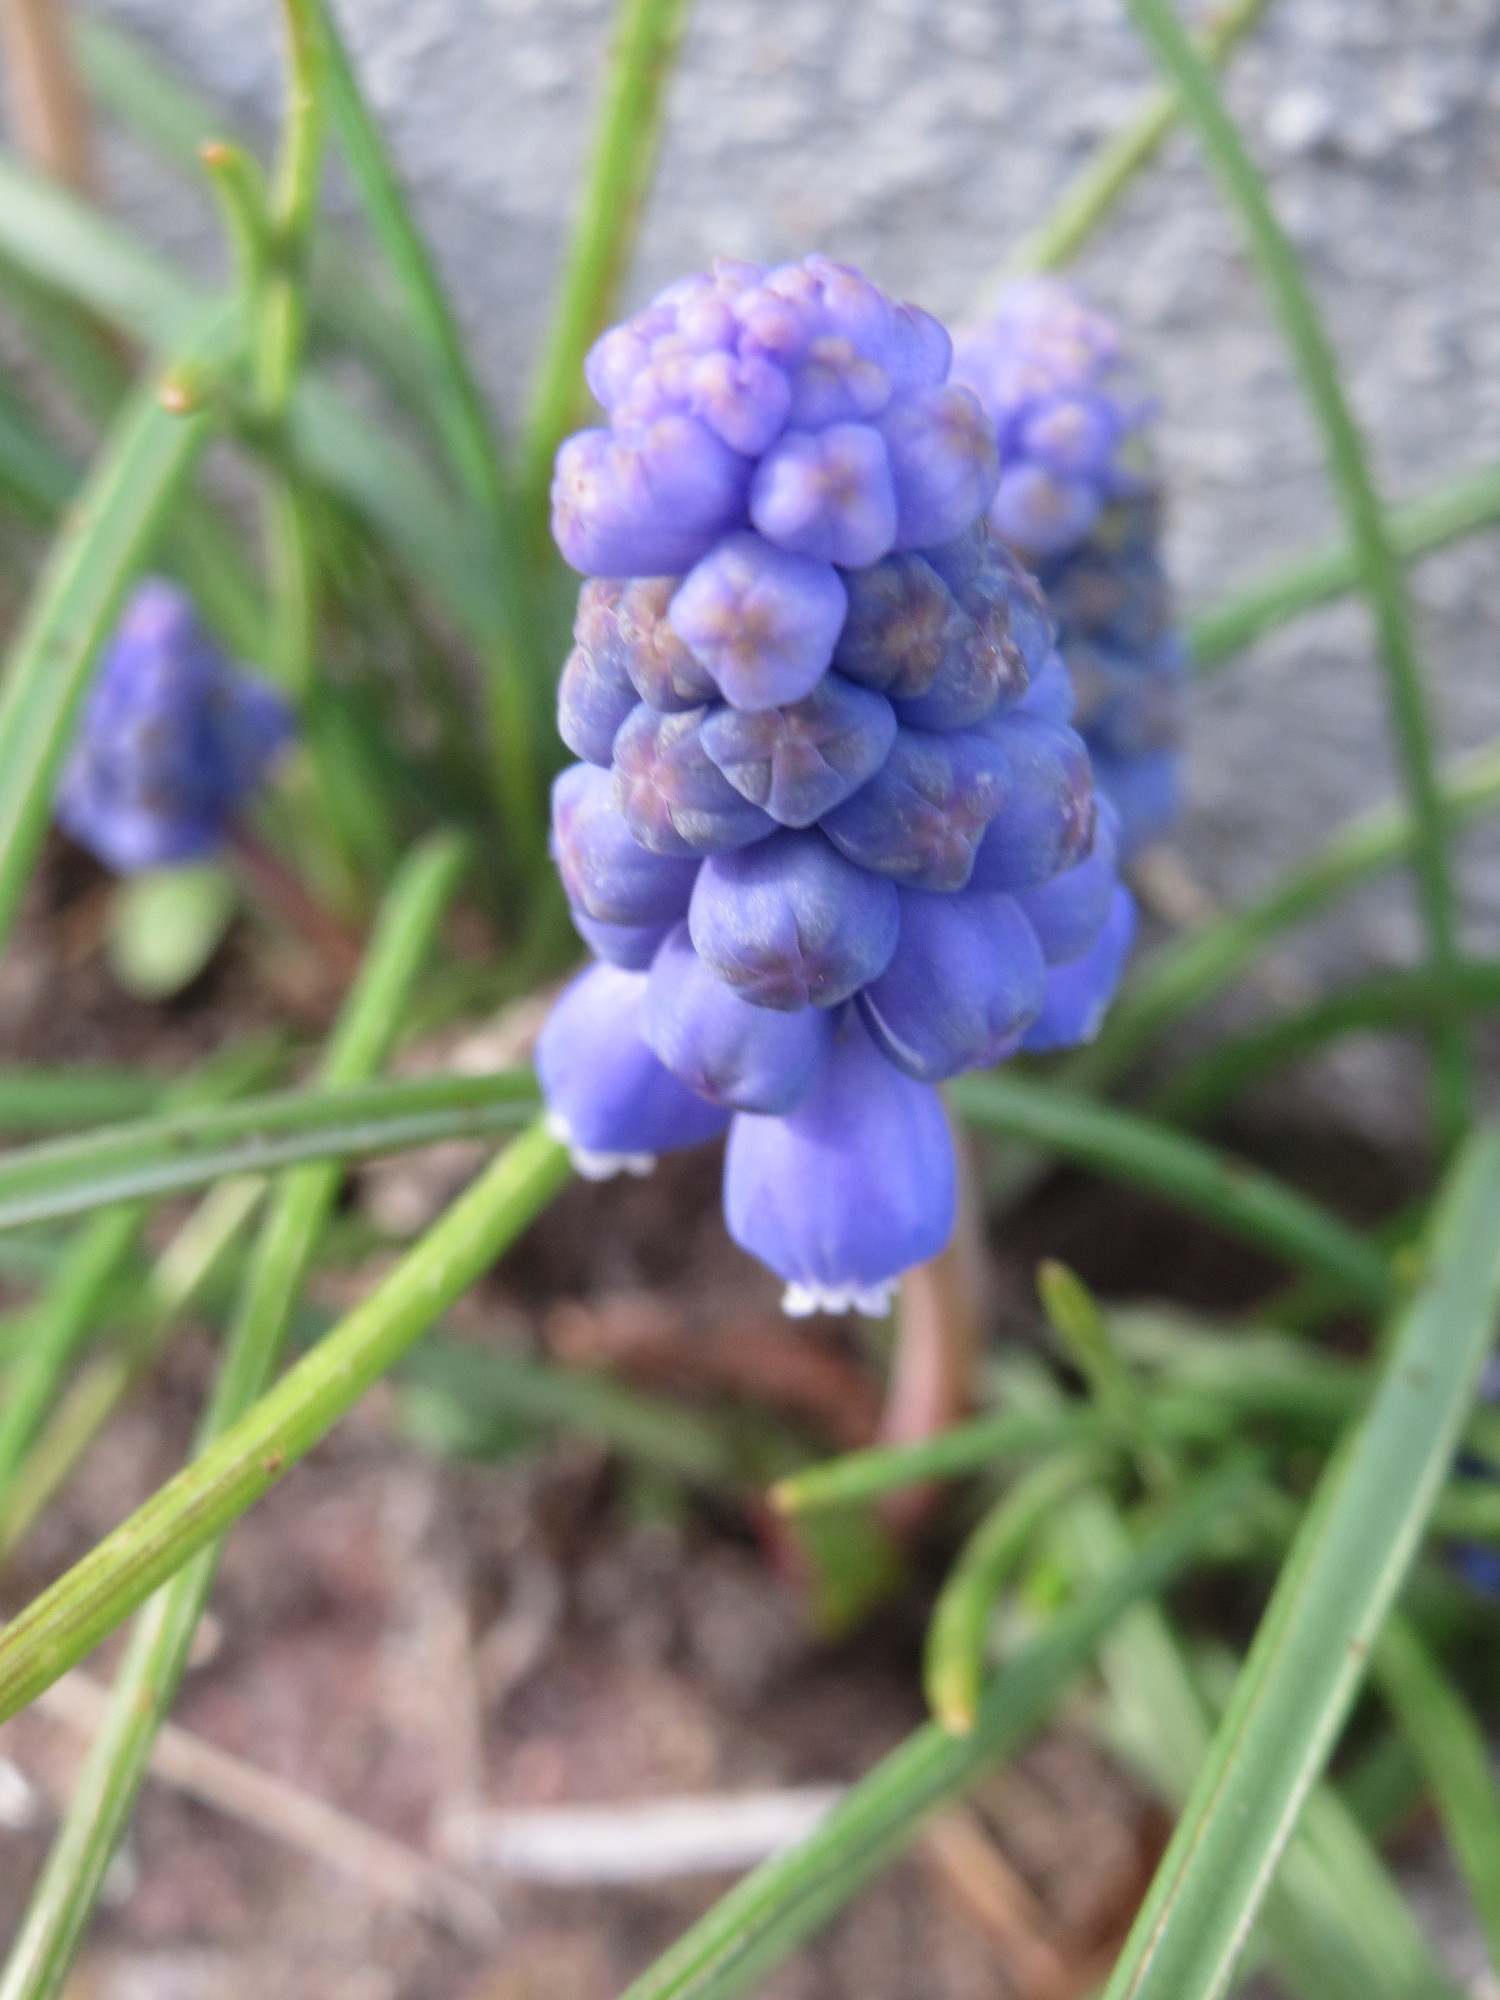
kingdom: Plantae
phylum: Tracheophyta
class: Liliopsida
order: Asparagales
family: Asparagaceae
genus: Muscari
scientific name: Muscari armeniacum
